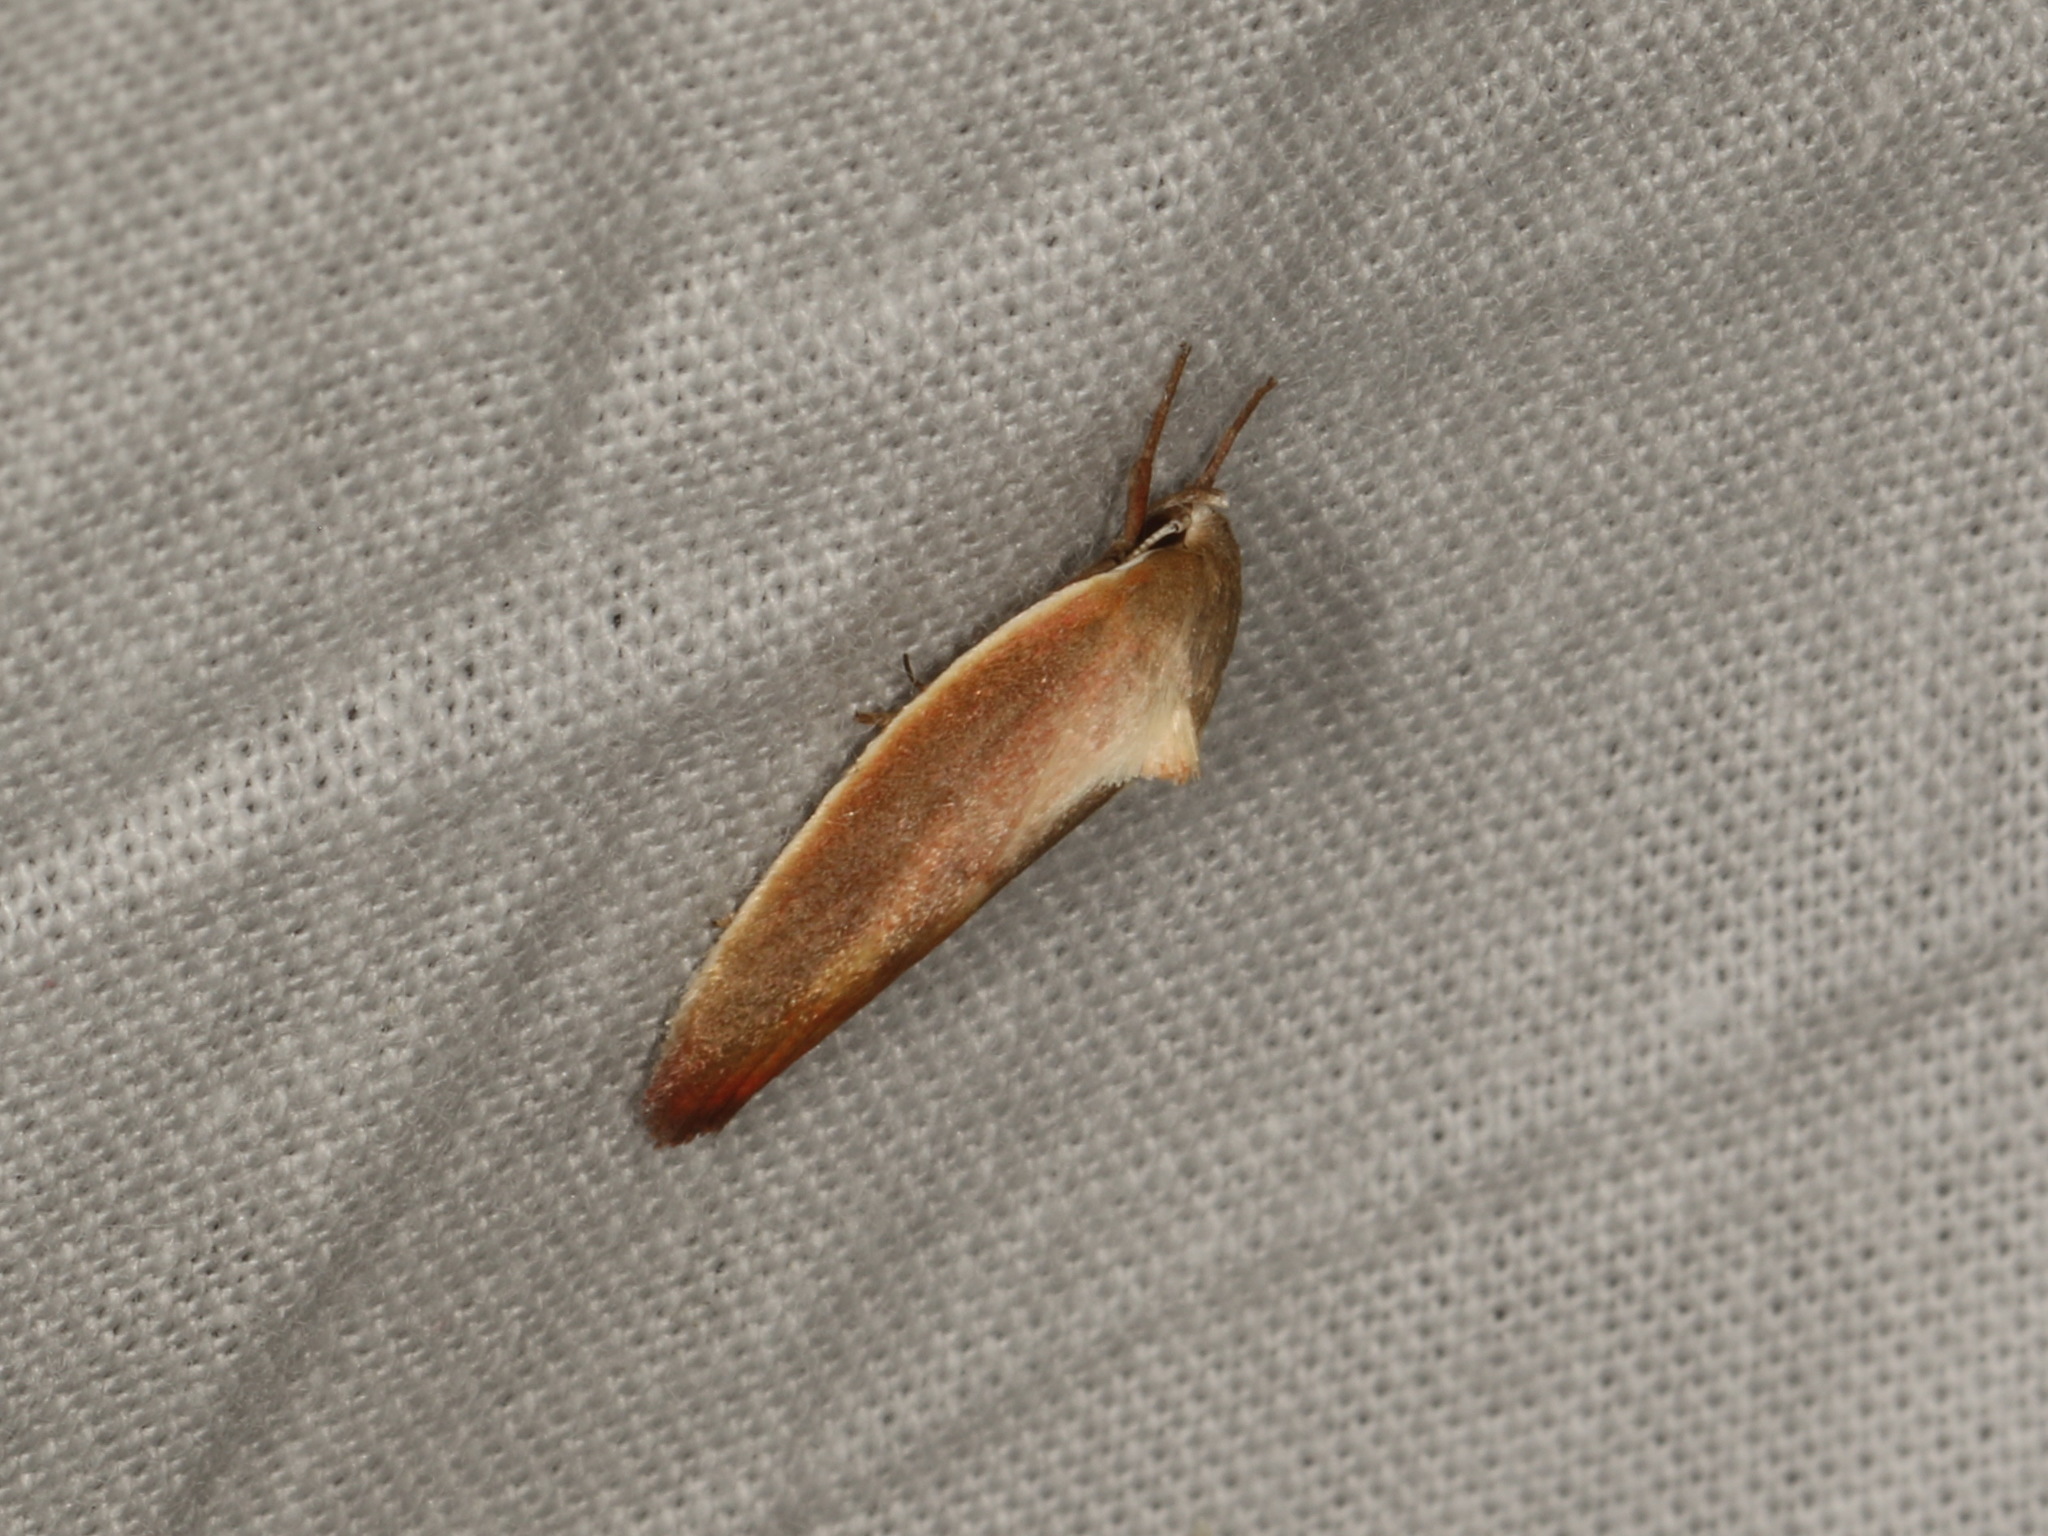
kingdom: Animalia
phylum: Arthropoda
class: Insecta
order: Lepidoptera
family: Oecophoridae
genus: Ptyoptila
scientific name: Ptyoptila matutinella
